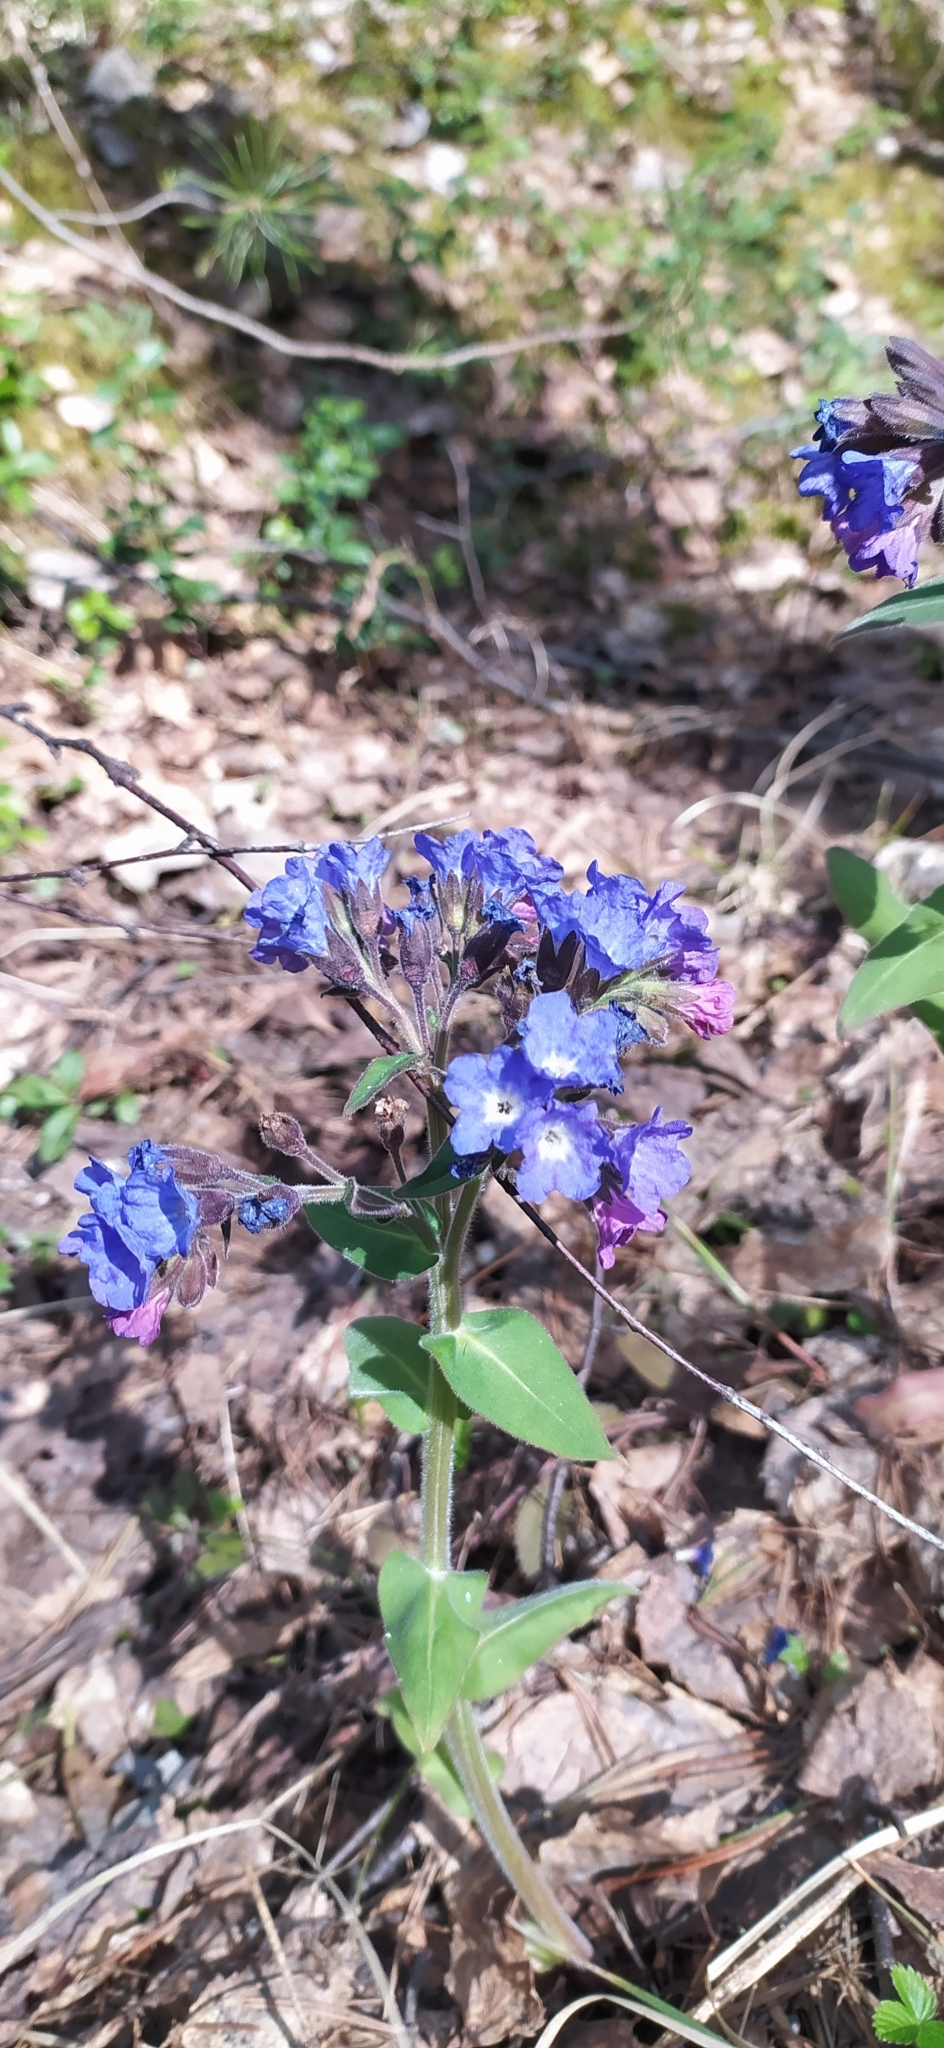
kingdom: Plantae
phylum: Tracheophyta
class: Magnoliopsida
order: Boraginales
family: Boraginaceae
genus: Pulmonaria
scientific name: Pulmonaria mollis
